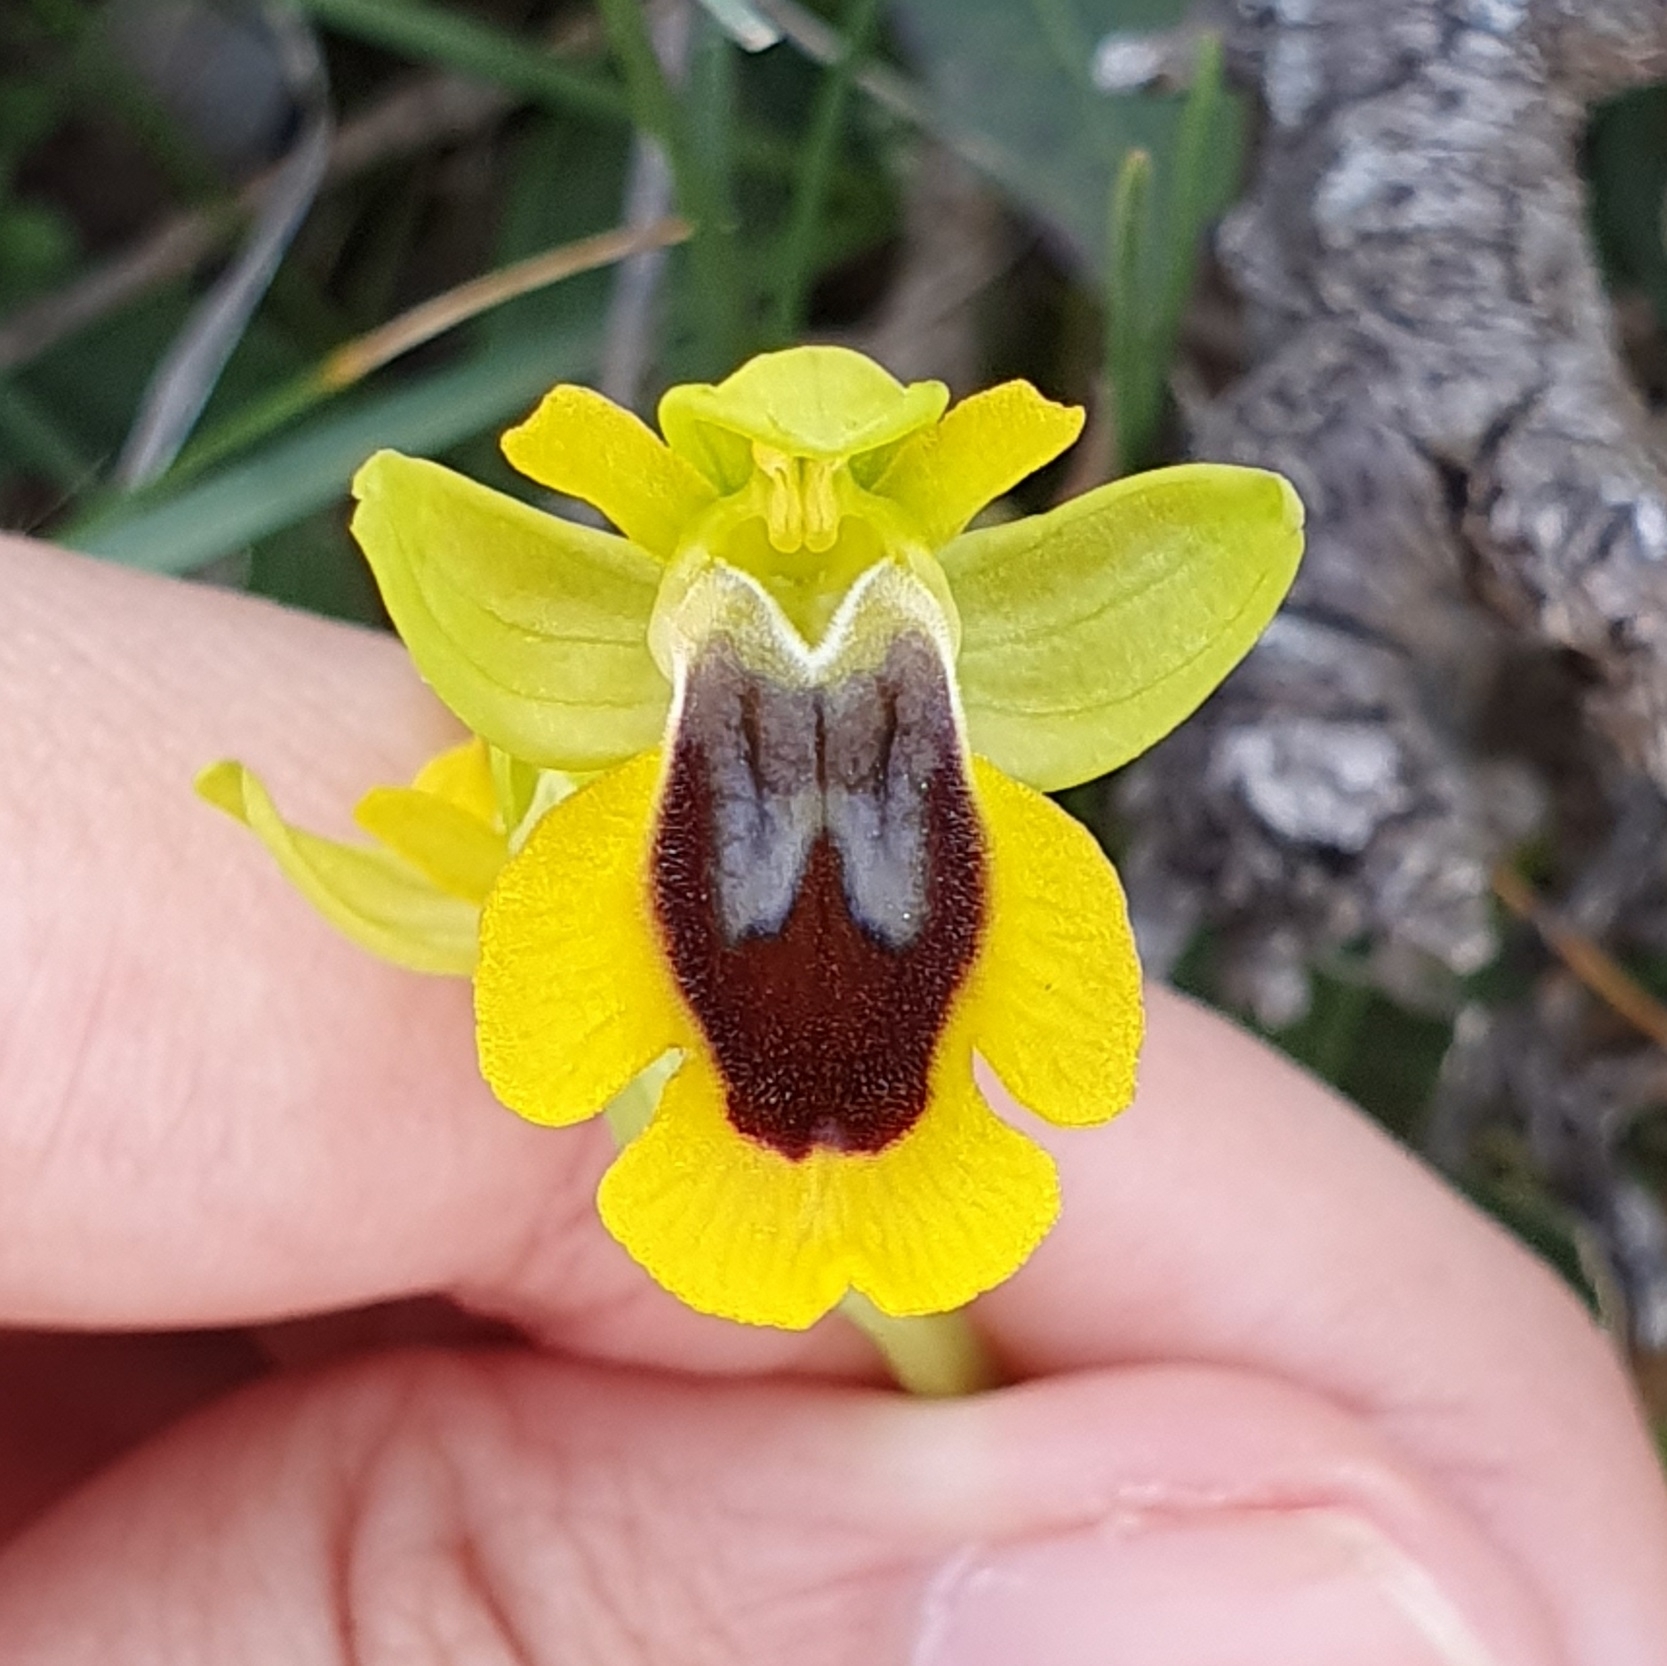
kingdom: Plantae
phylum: Tracheophyta
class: Liliopsida
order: Asparagales
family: Orchidaceae
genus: Ophrys
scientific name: Ophrys lutea
